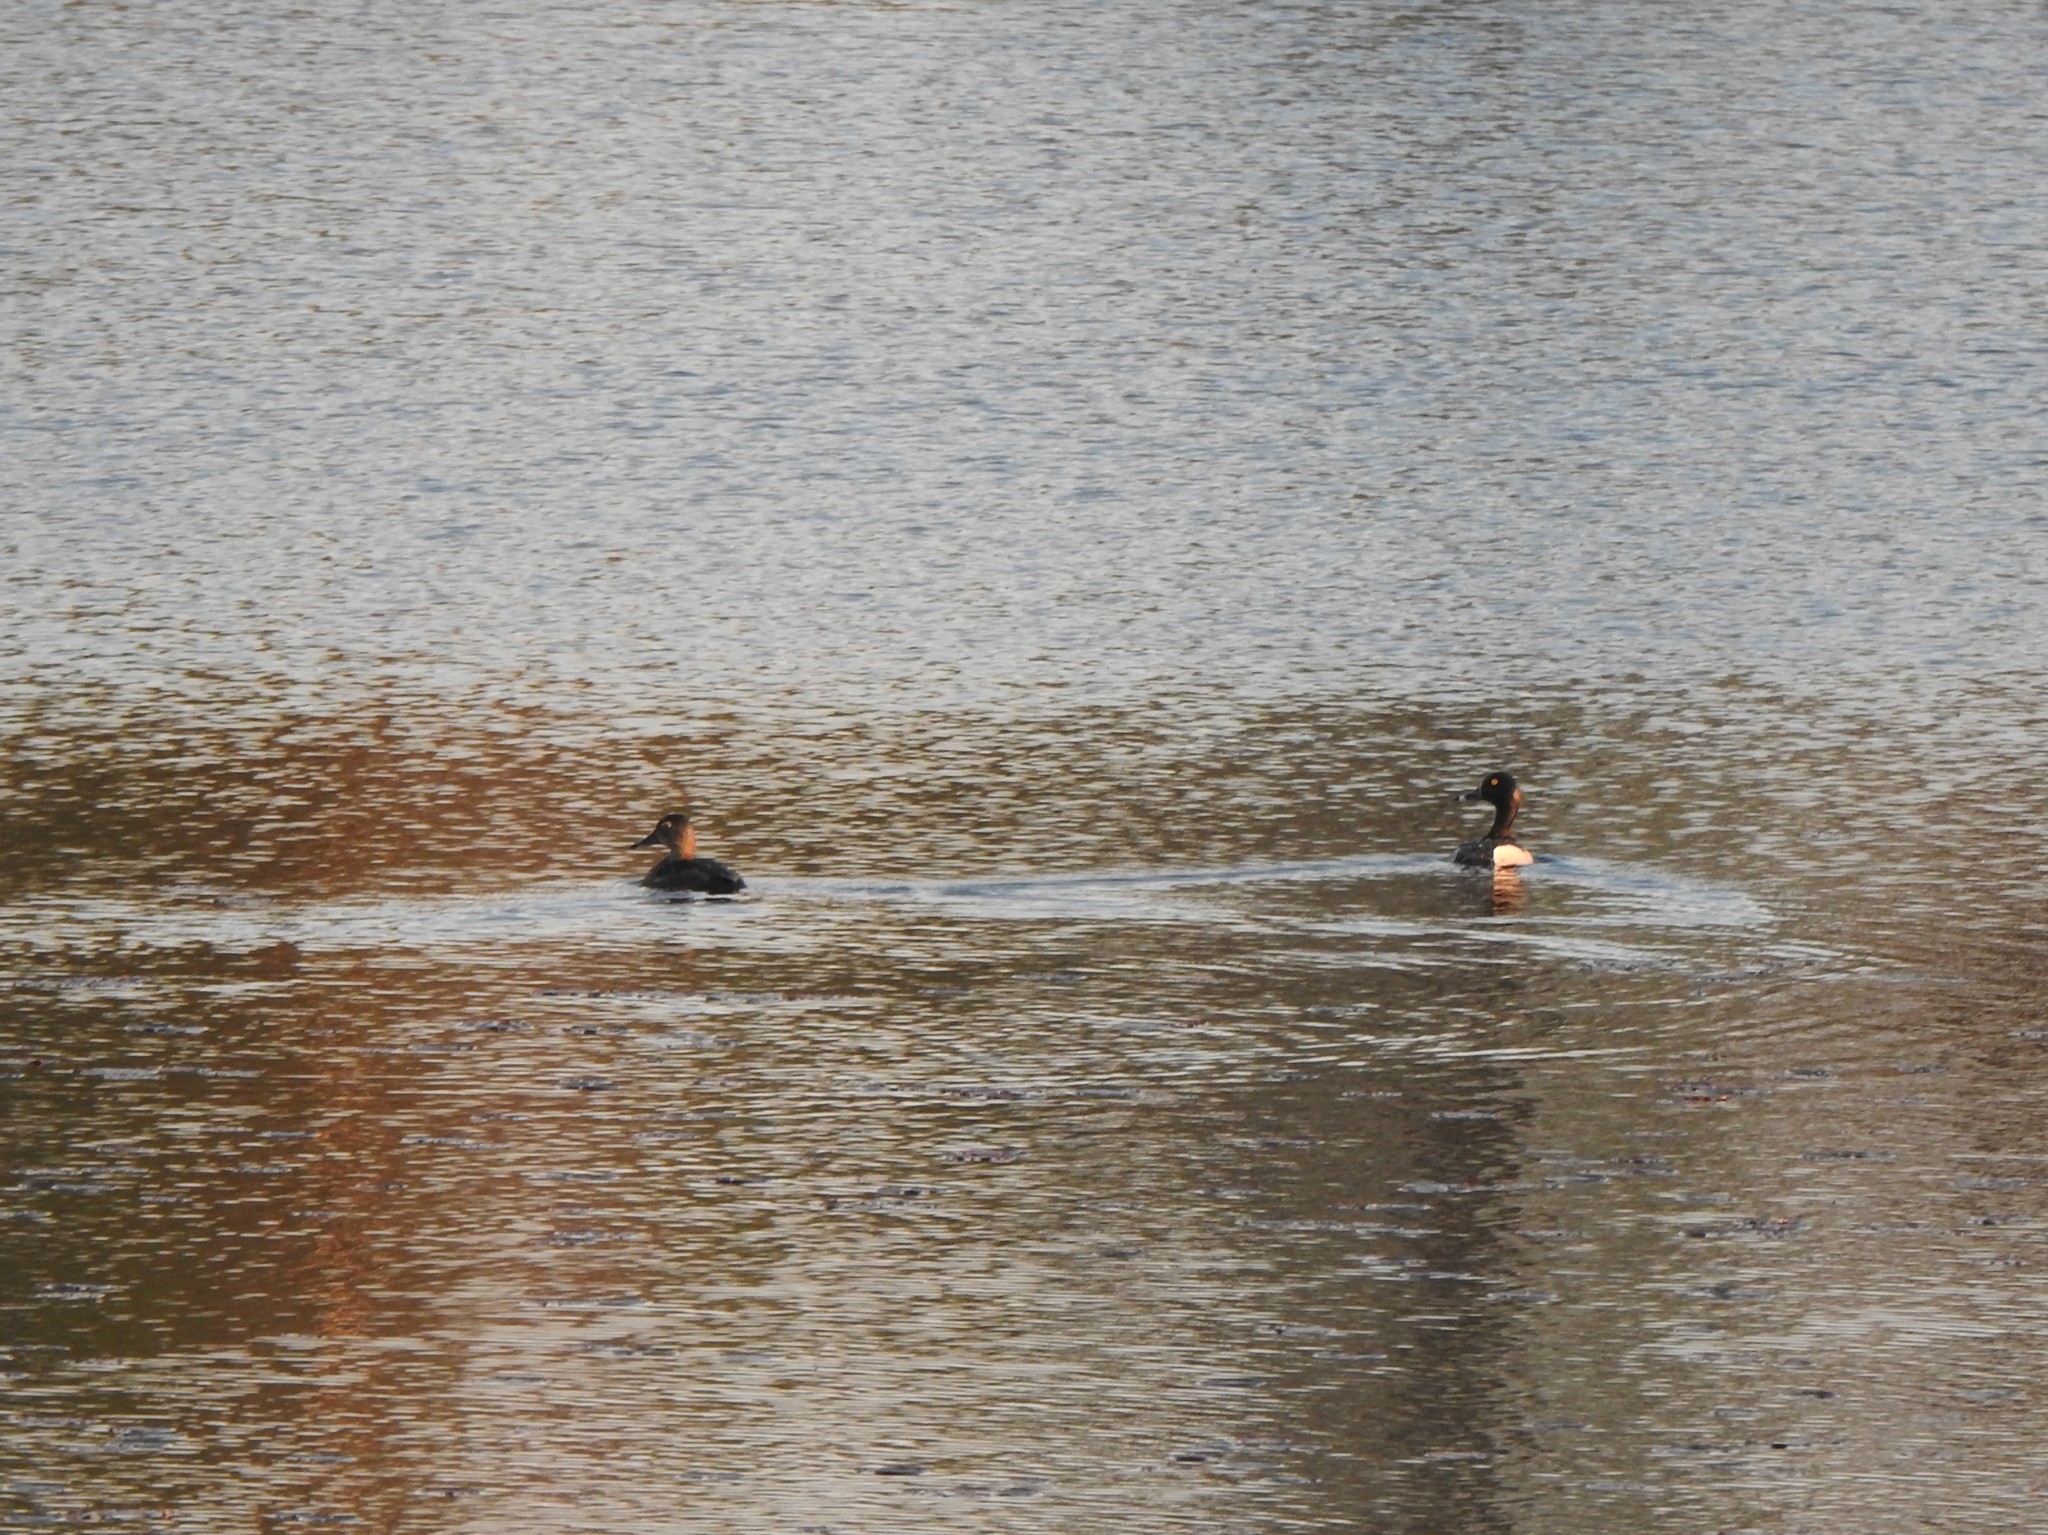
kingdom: Animalia
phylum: Chordata
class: Aves
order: Anseriformes
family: Anatidae
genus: Aythya
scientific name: Aythya collaris
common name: Ring-necked duck
